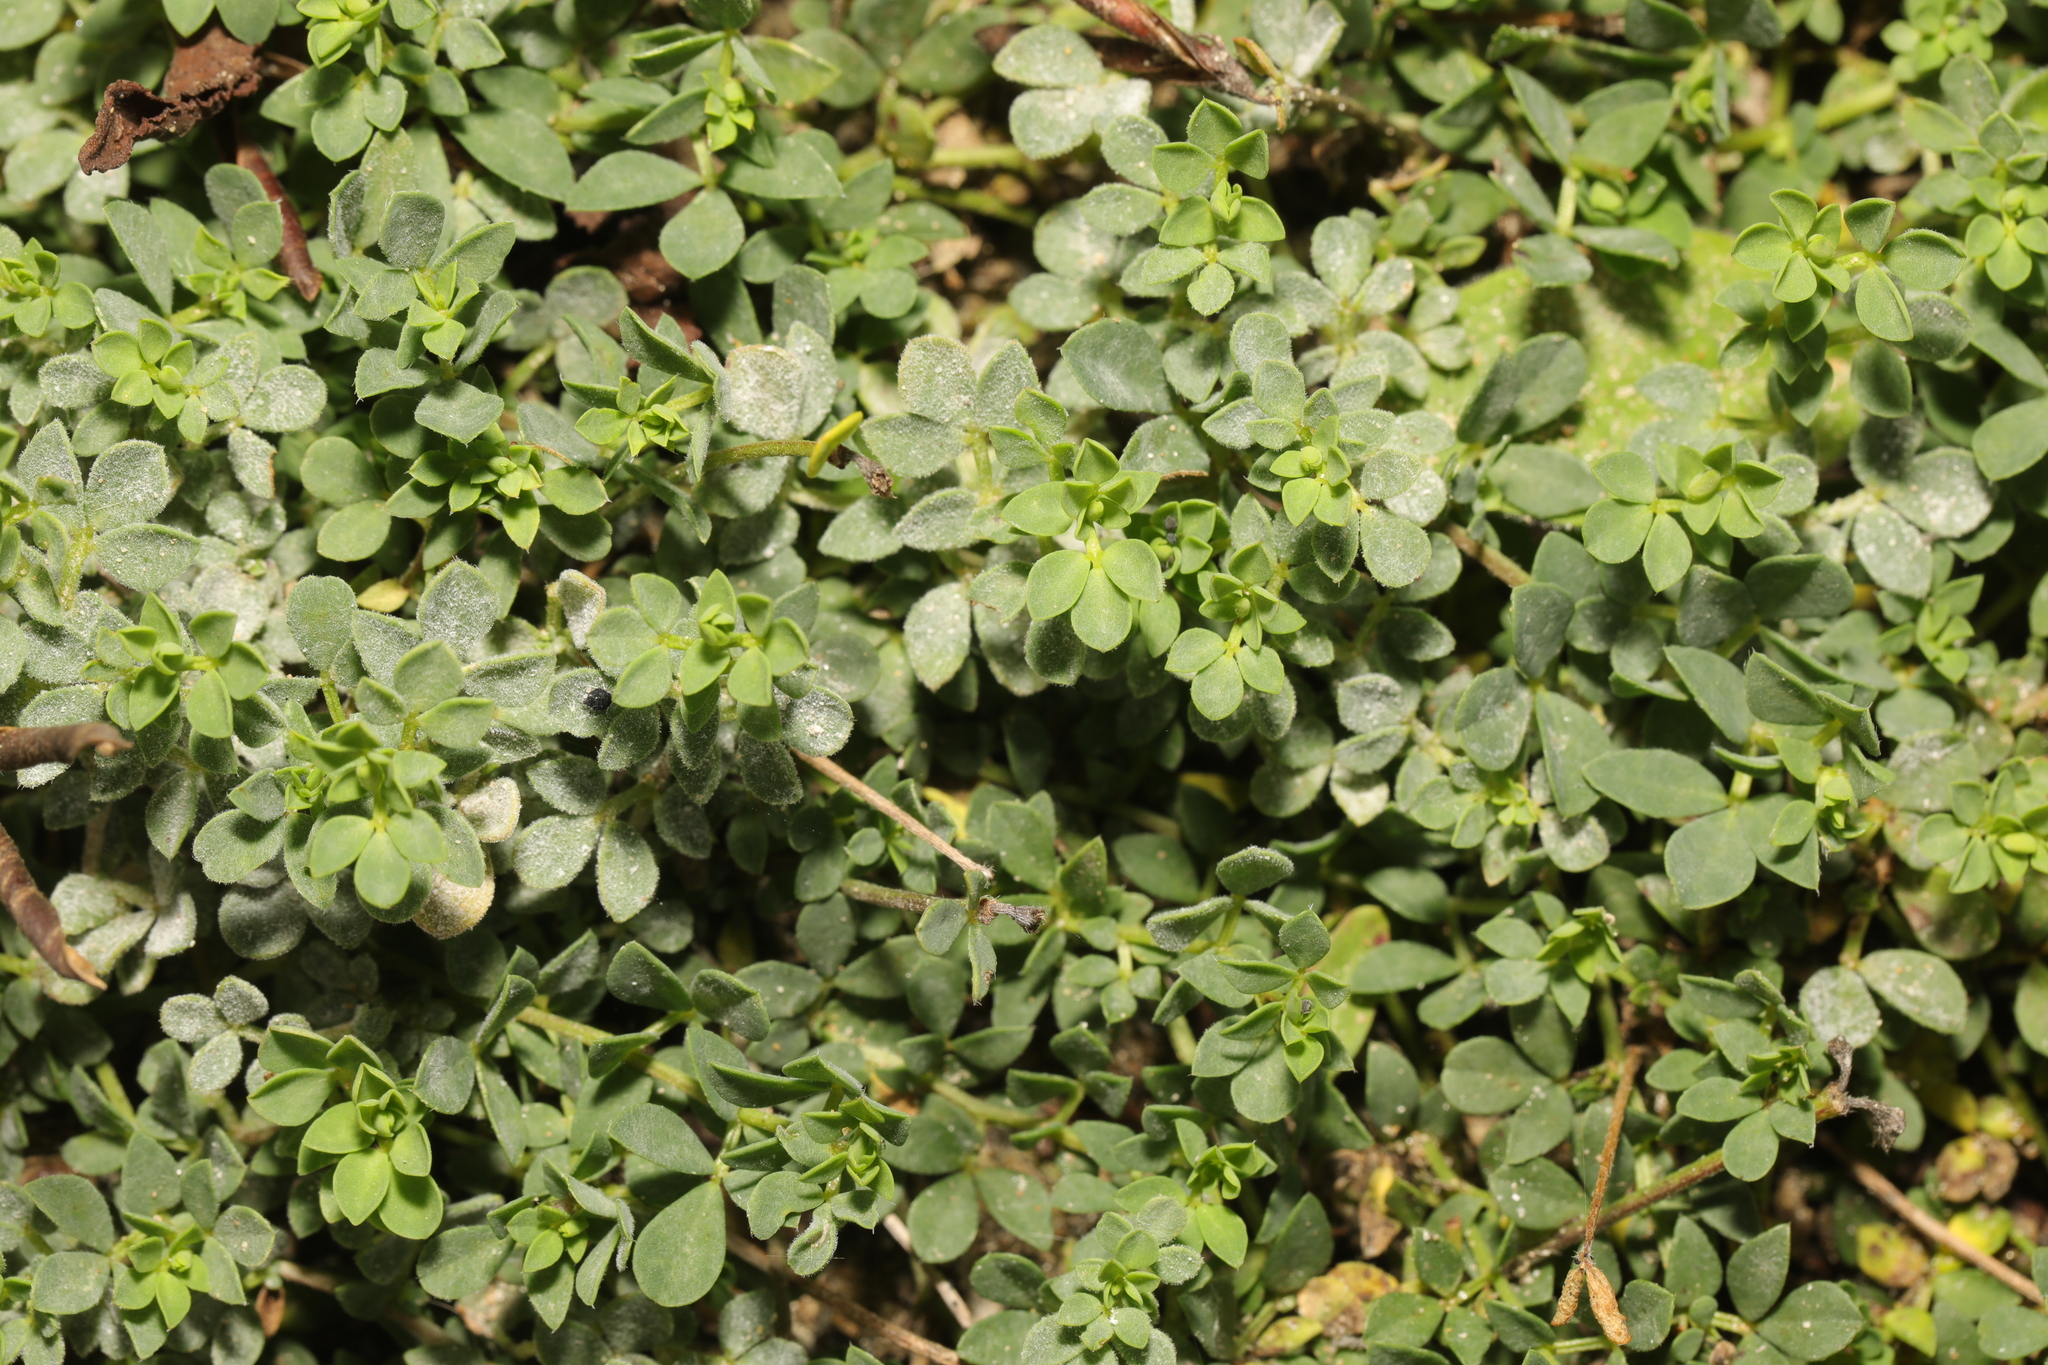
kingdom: Plantae
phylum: Tracheophyta
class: Magnoliopsida
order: Fabales
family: Fabaceae
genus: Medicago
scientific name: Medicago lupulina
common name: Black medick
